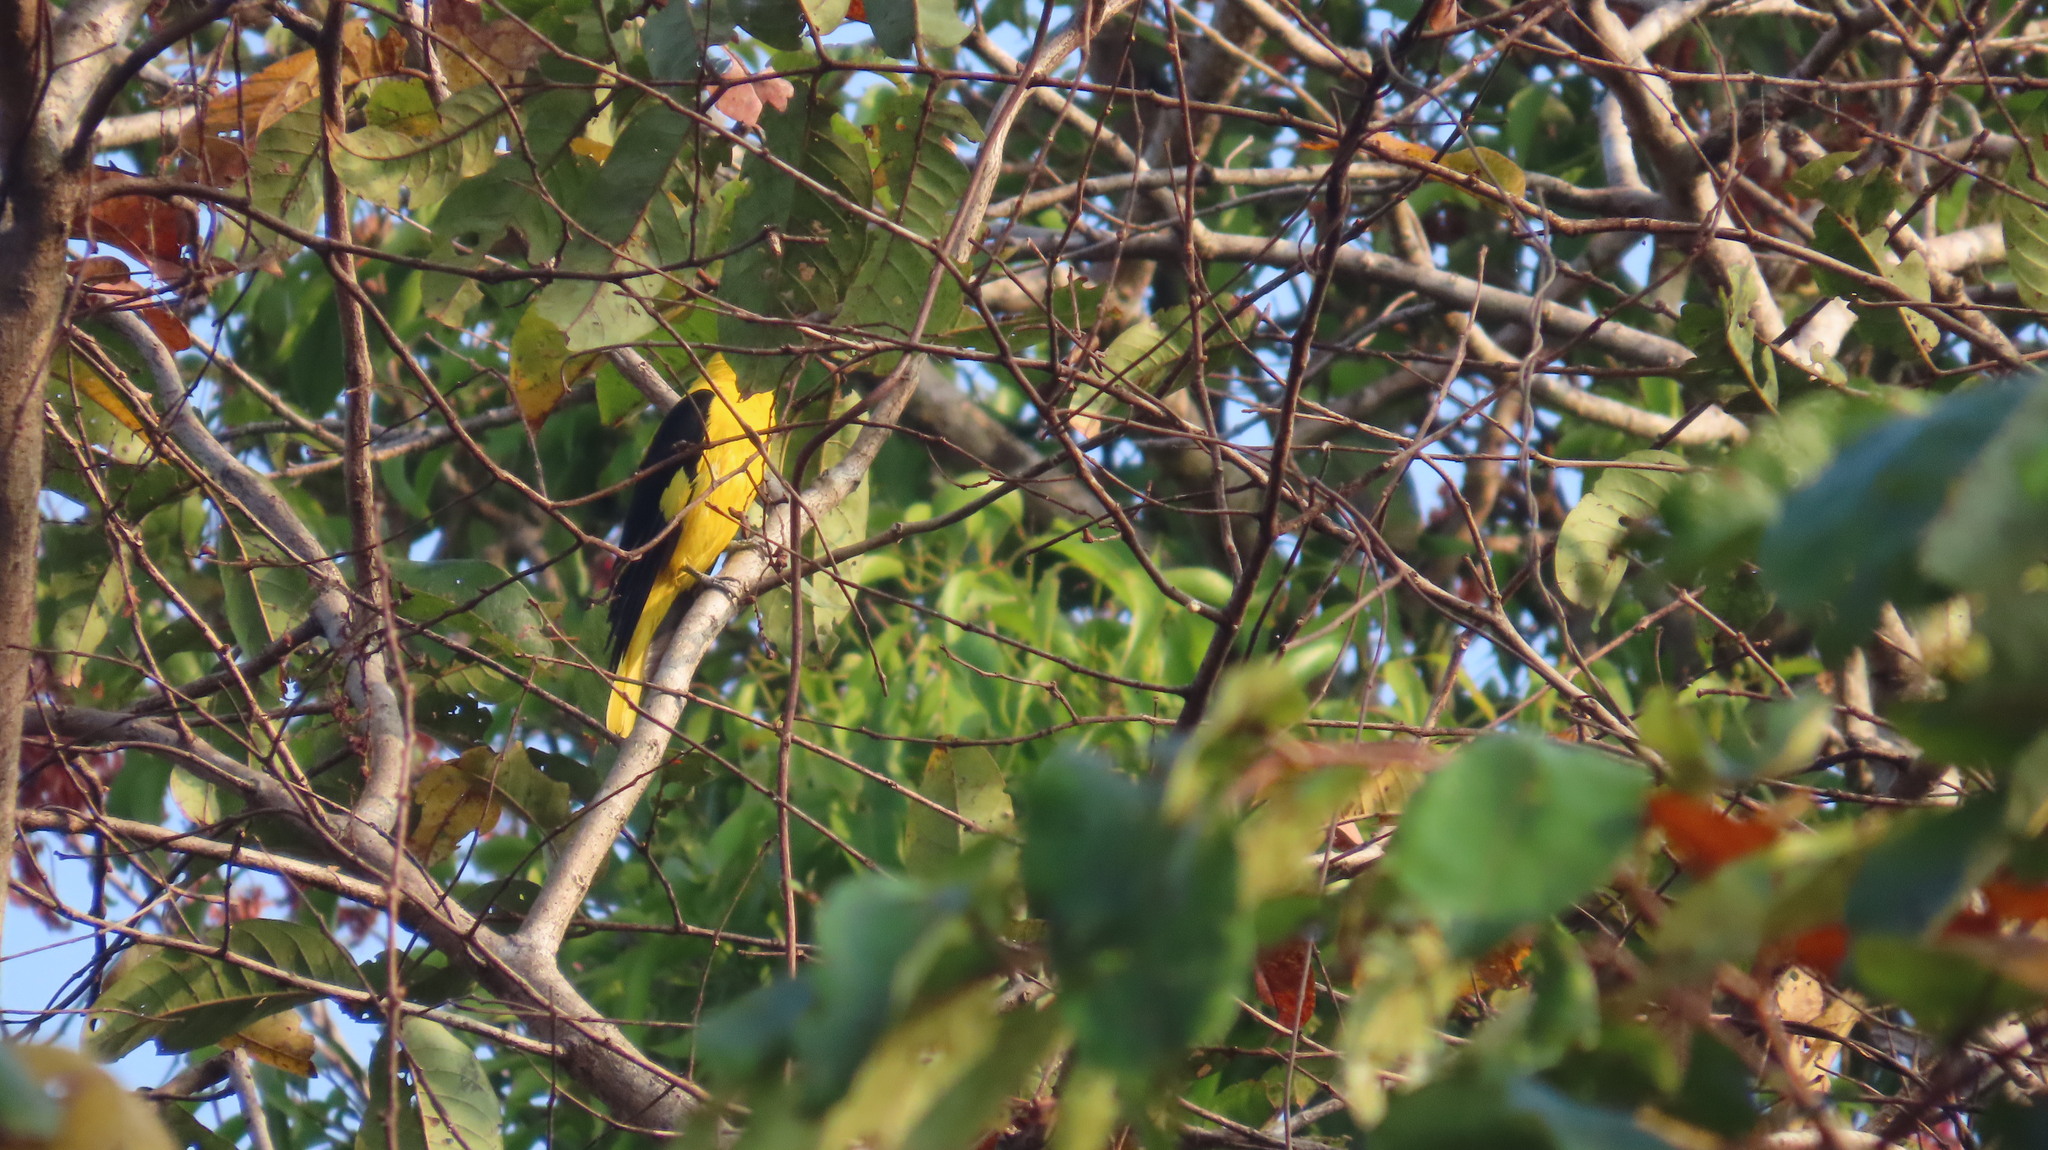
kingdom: Animalia
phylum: Chordata
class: Aves
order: Passeriformes
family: Oriolidae
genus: Oriolus
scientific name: Oriolus kundoo
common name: Indian golden oriole
